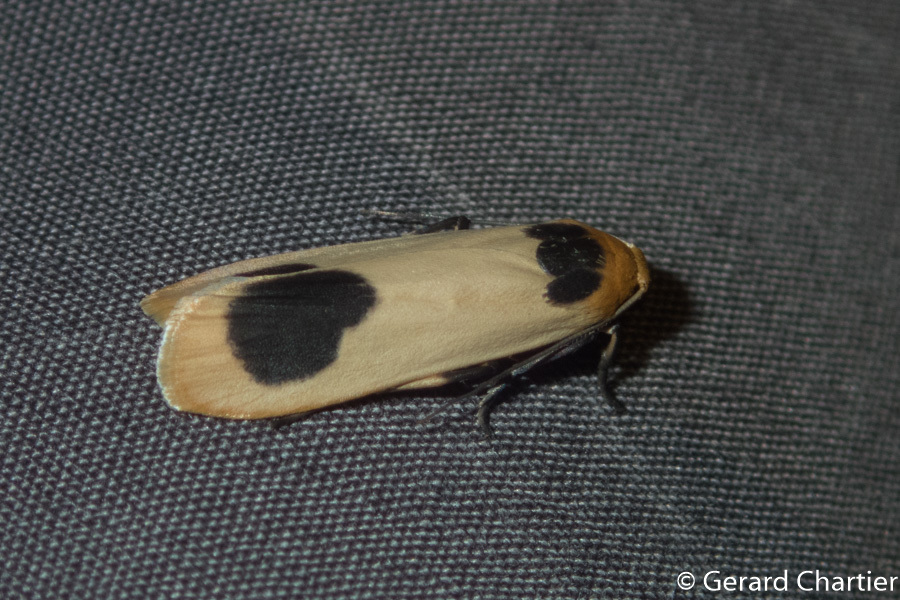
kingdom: Animalia
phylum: Arthropoda
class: Insecta
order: Lepidoptera
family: Erebidae
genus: Brunia
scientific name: Brunia gibonica
